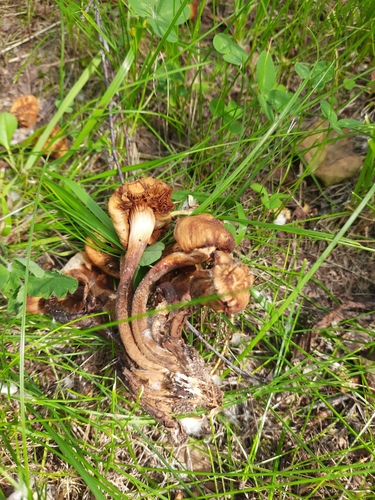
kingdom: Fungi
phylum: Basidiomycota
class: Agaricomycetes
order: Agaricales
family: Strophariaceae
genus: Kuehneromyces
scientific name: Kuehneromyces mutabilis
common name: Sheathed woodtuft
